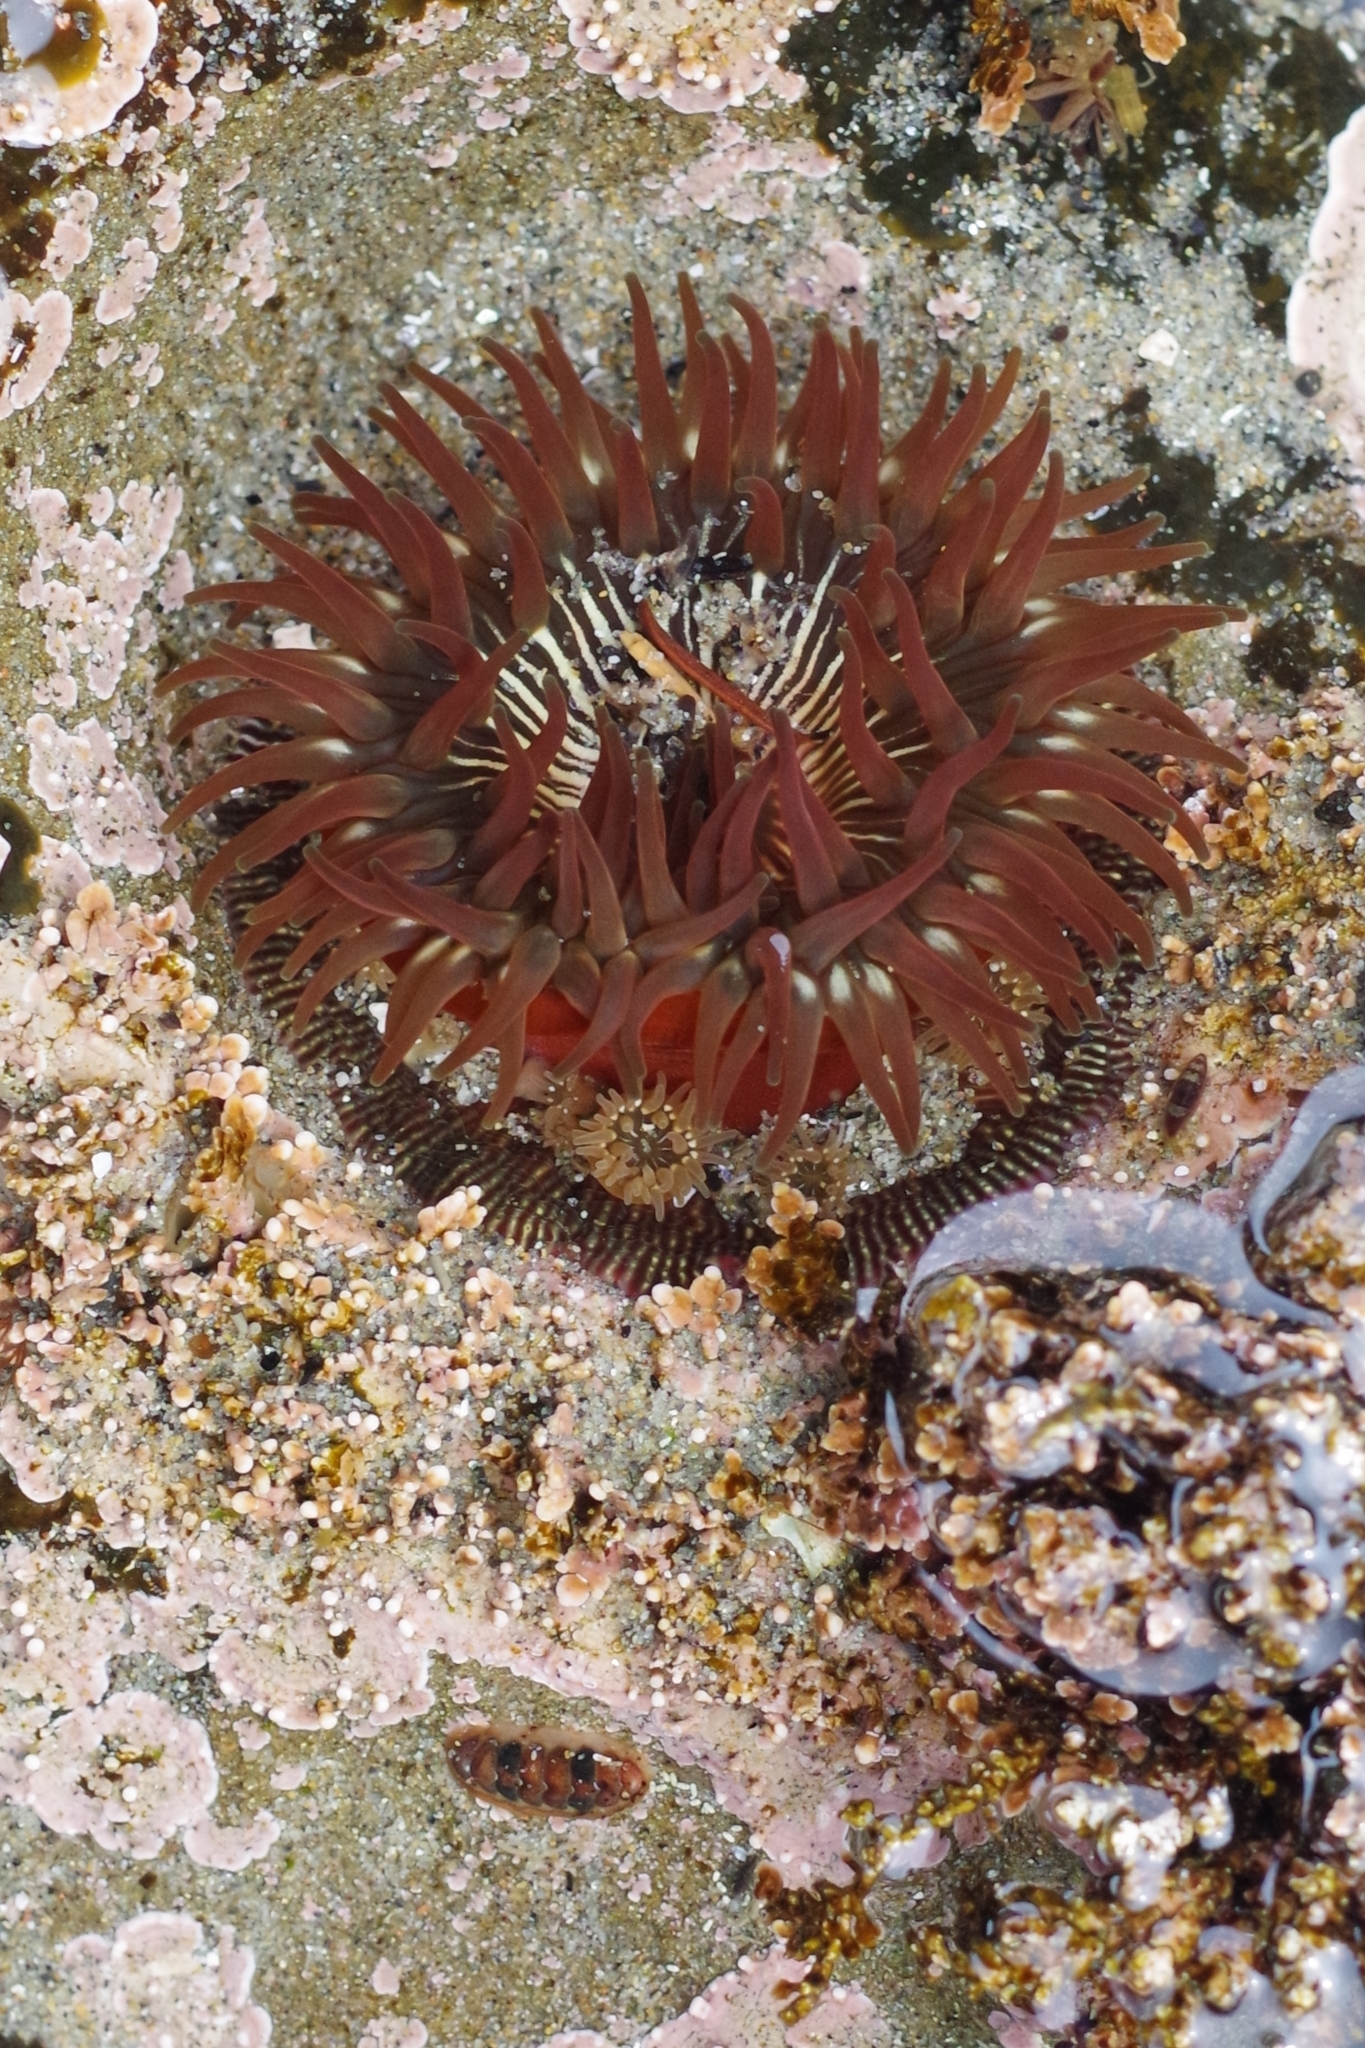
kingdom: Animalia
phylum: Cnidaria
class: Anthozoa
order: Actiniaria
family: Actiniidae
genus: Epiactis
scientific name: Epiactis prolifera
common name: Brooding anemone
